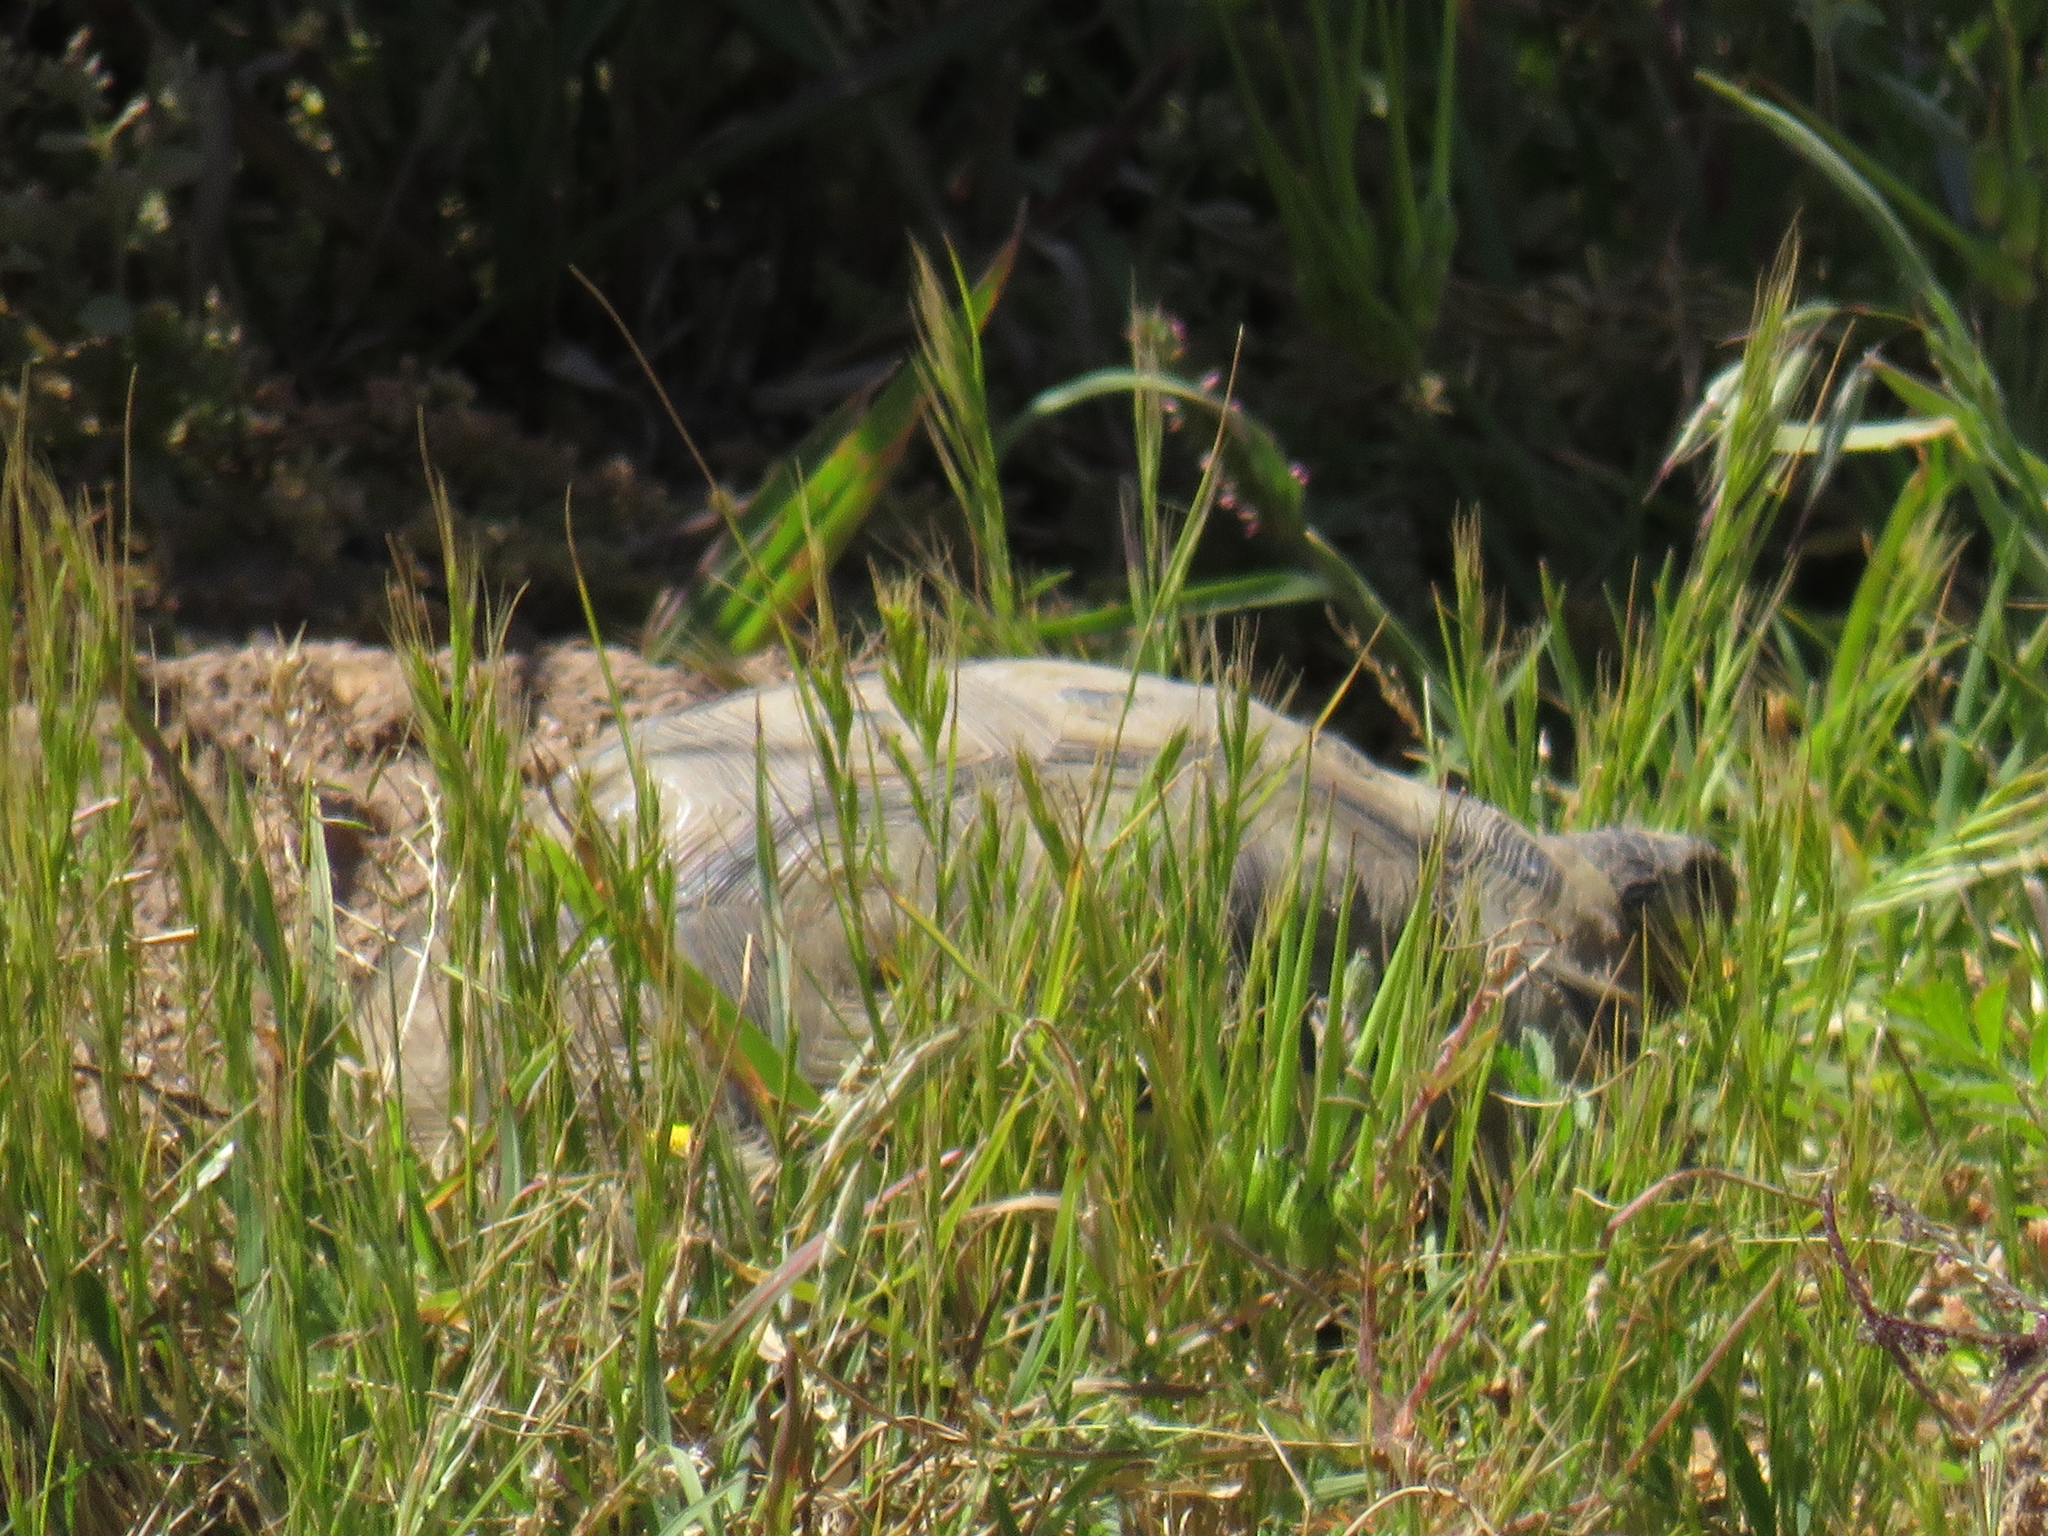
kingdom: Animalia
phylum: Chordata
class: Testudines
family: Testudinidae
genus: Chersina
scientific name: Chersina angulata
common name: South african bowsprit tortoise
